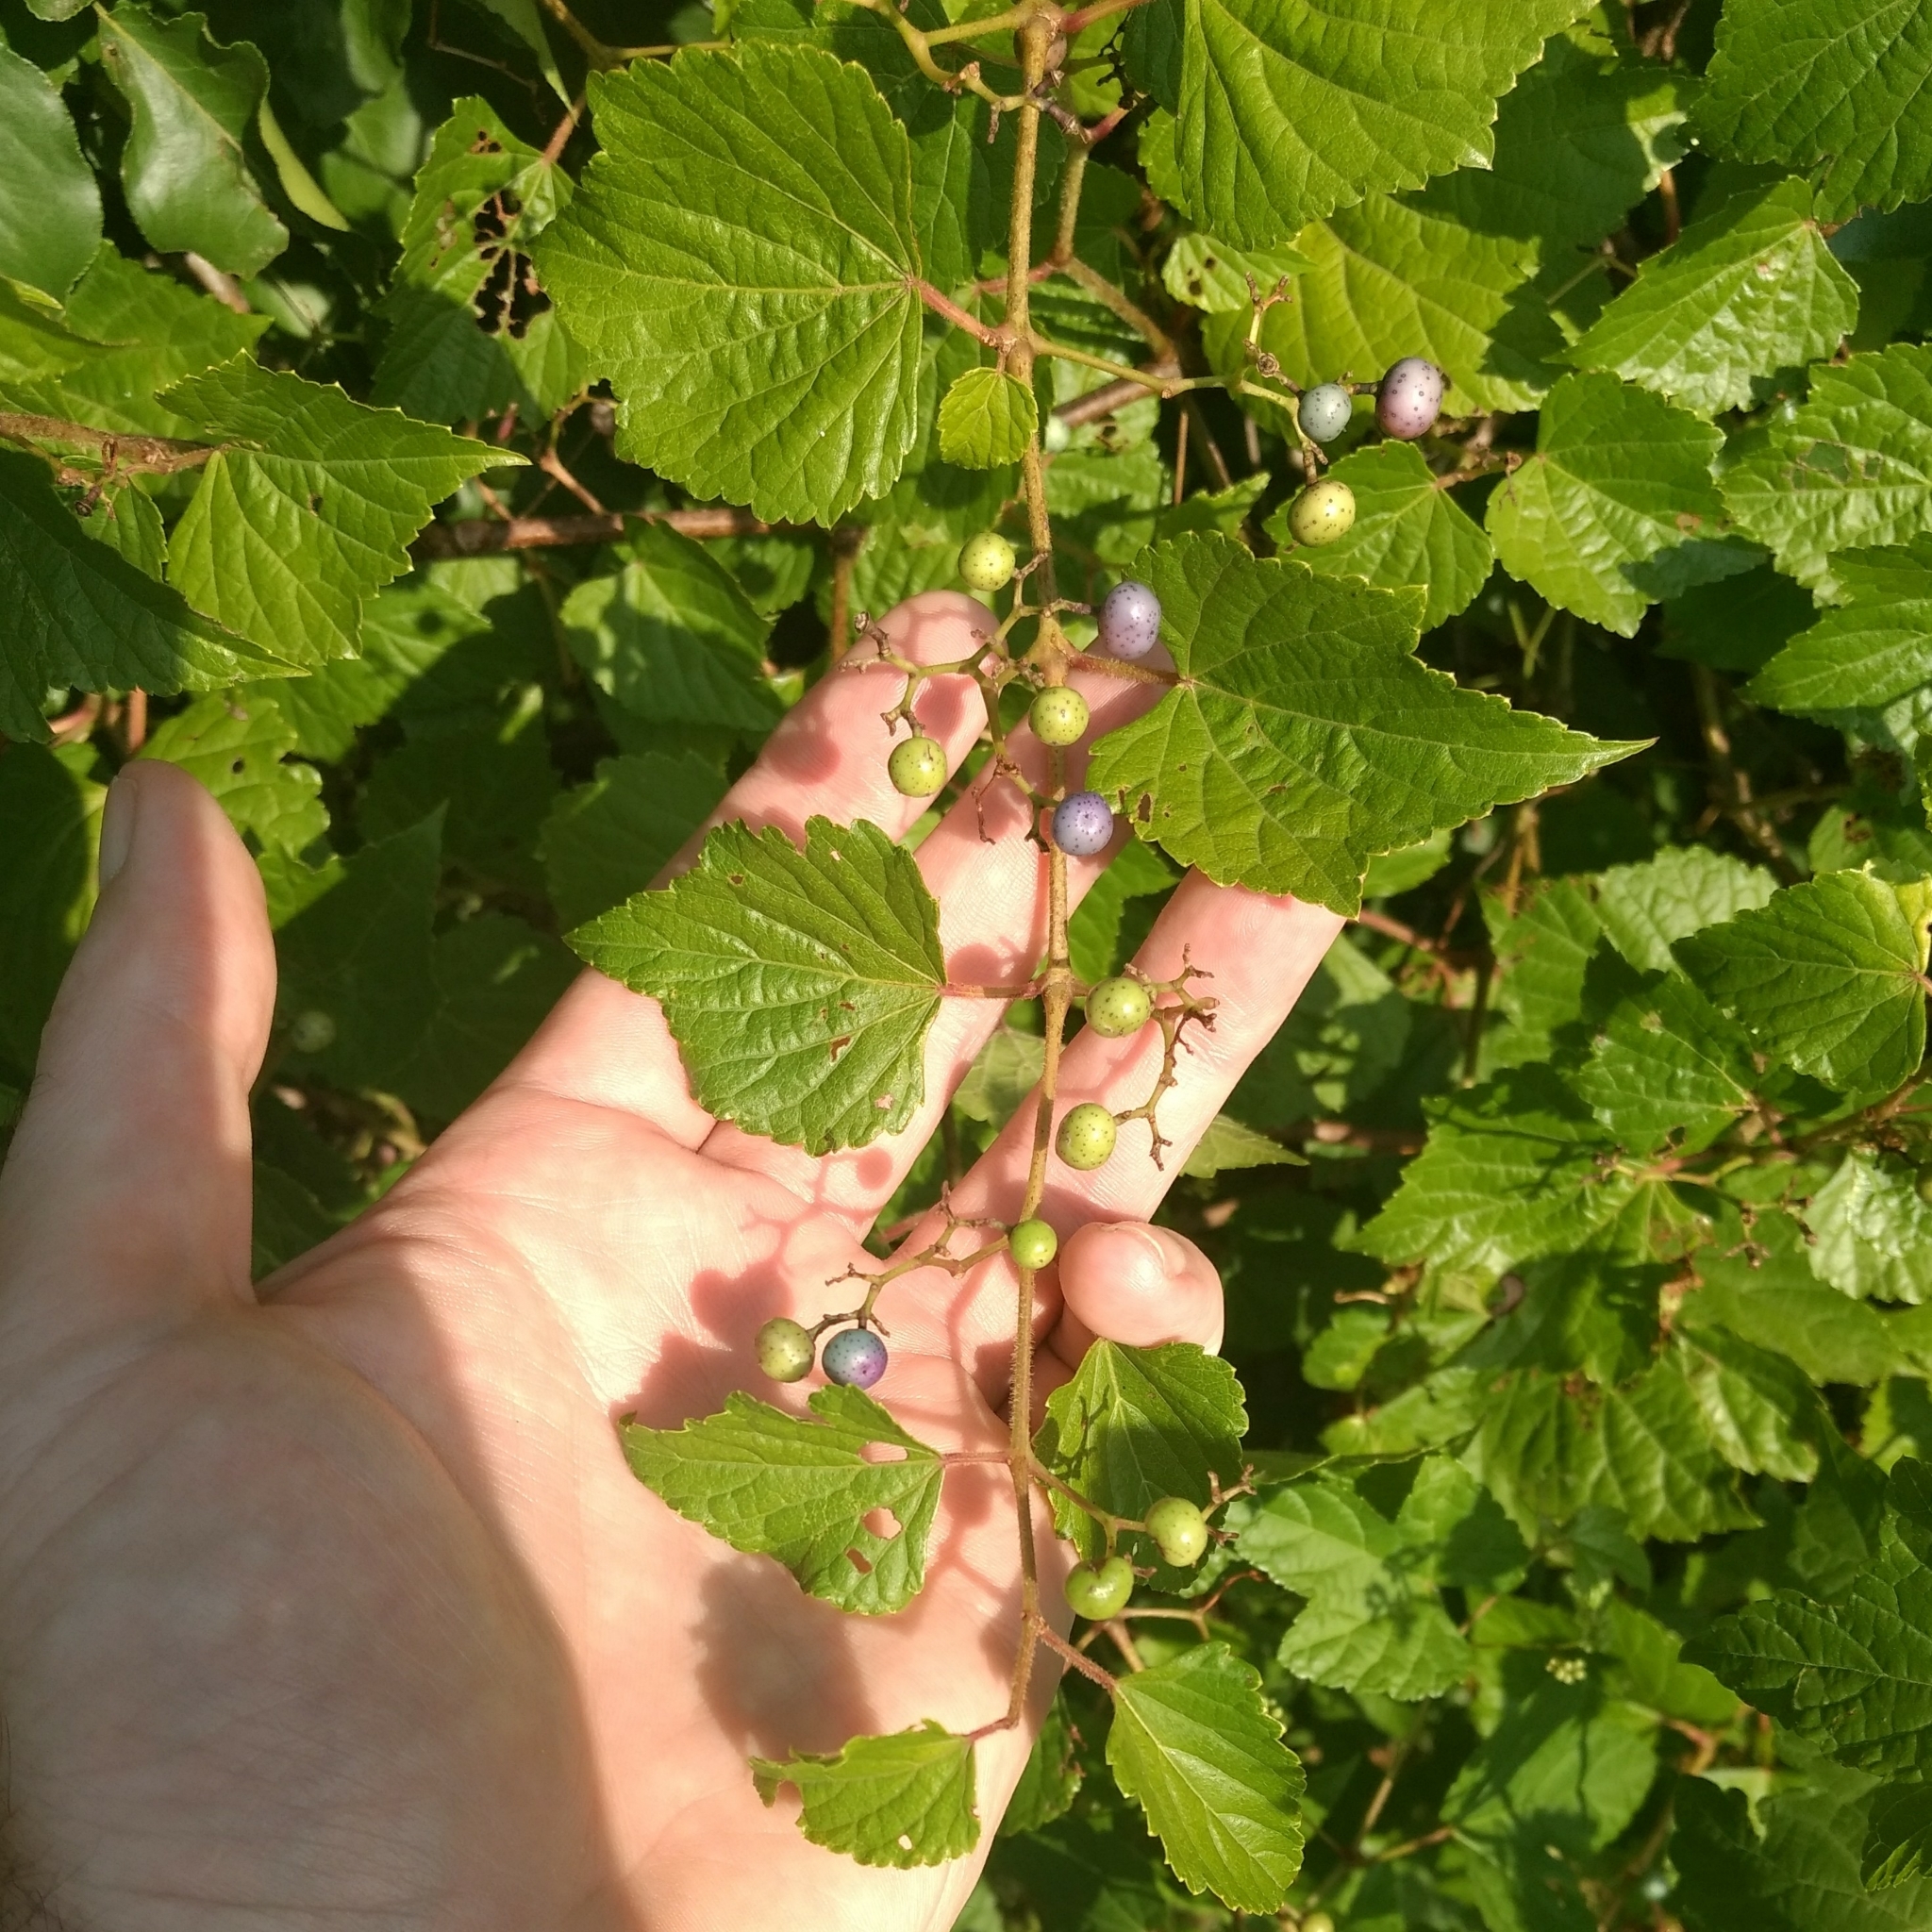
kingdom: Plantae
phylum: Tracheophyta
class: Magnoliopsida
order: Vitales
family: Vitaceae
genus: Ampelopsis
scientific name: Ampelopsis glandulosa
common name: Amur peppervine
